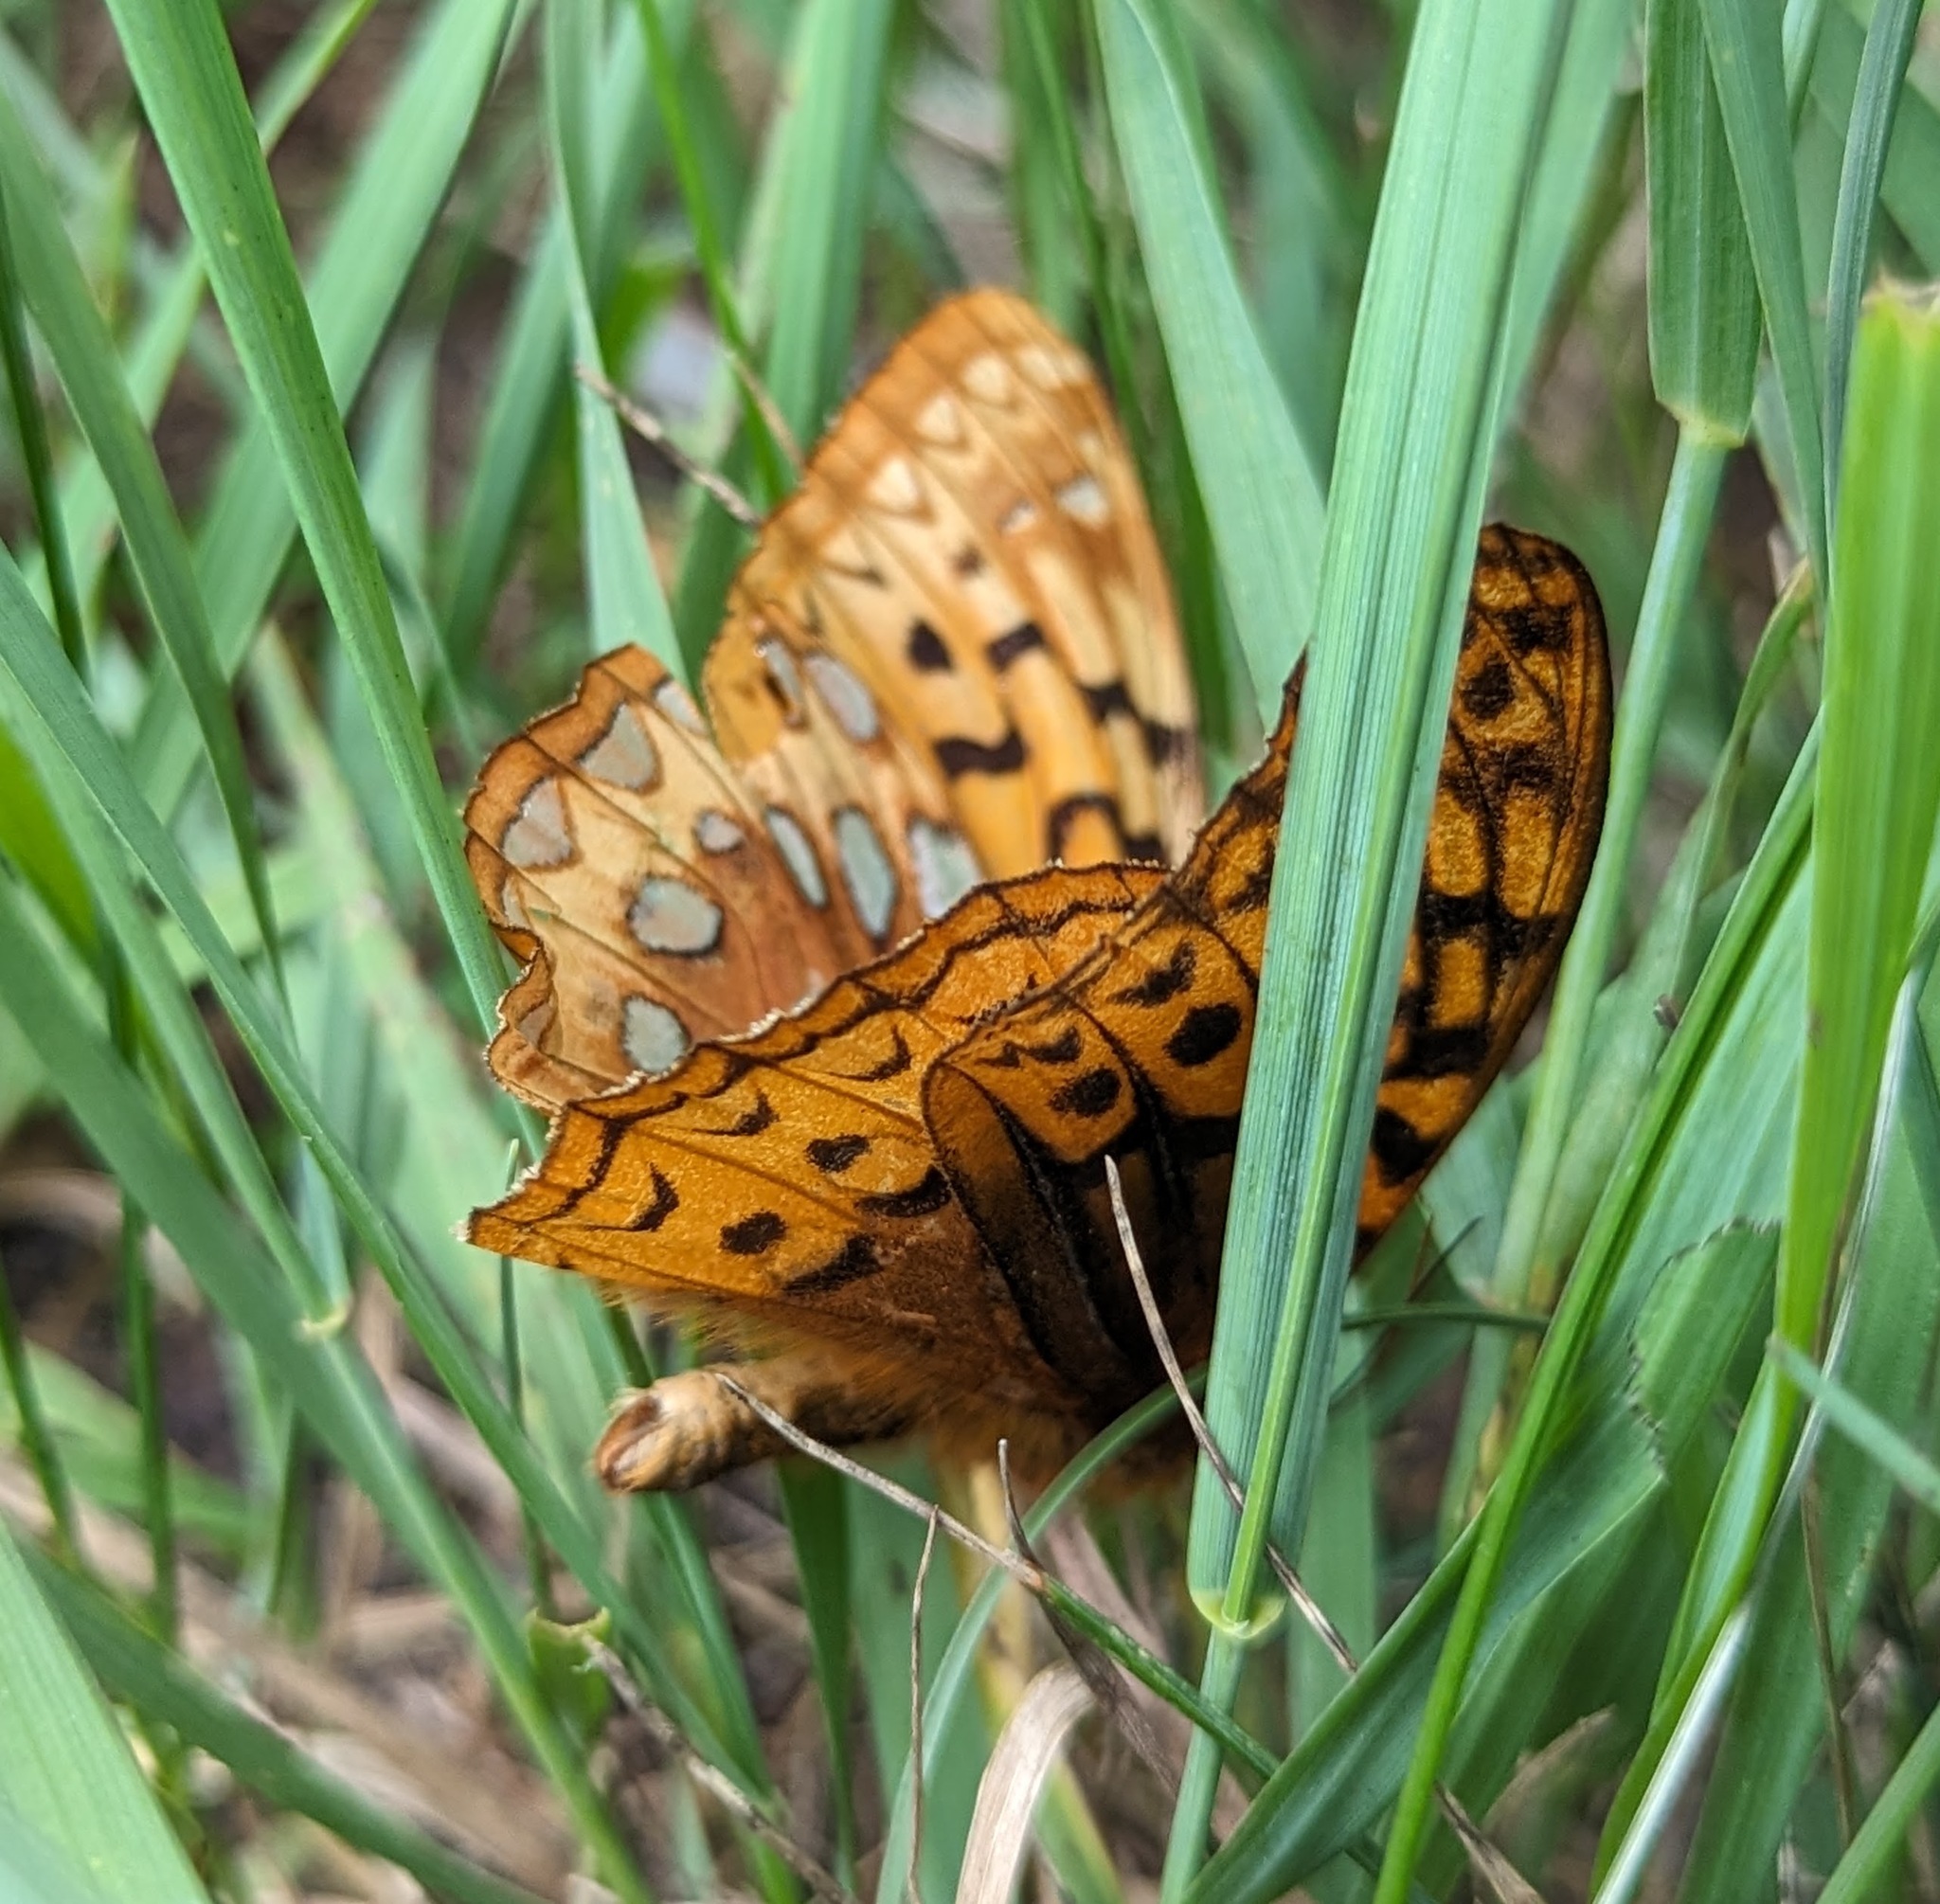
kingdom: Animalia
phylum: Arthropoda
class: Insecta
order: Lepidoptera
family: Nymphalidae
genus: Speyeria
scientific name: Speyeria cybele
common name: Great spangled fritillary
